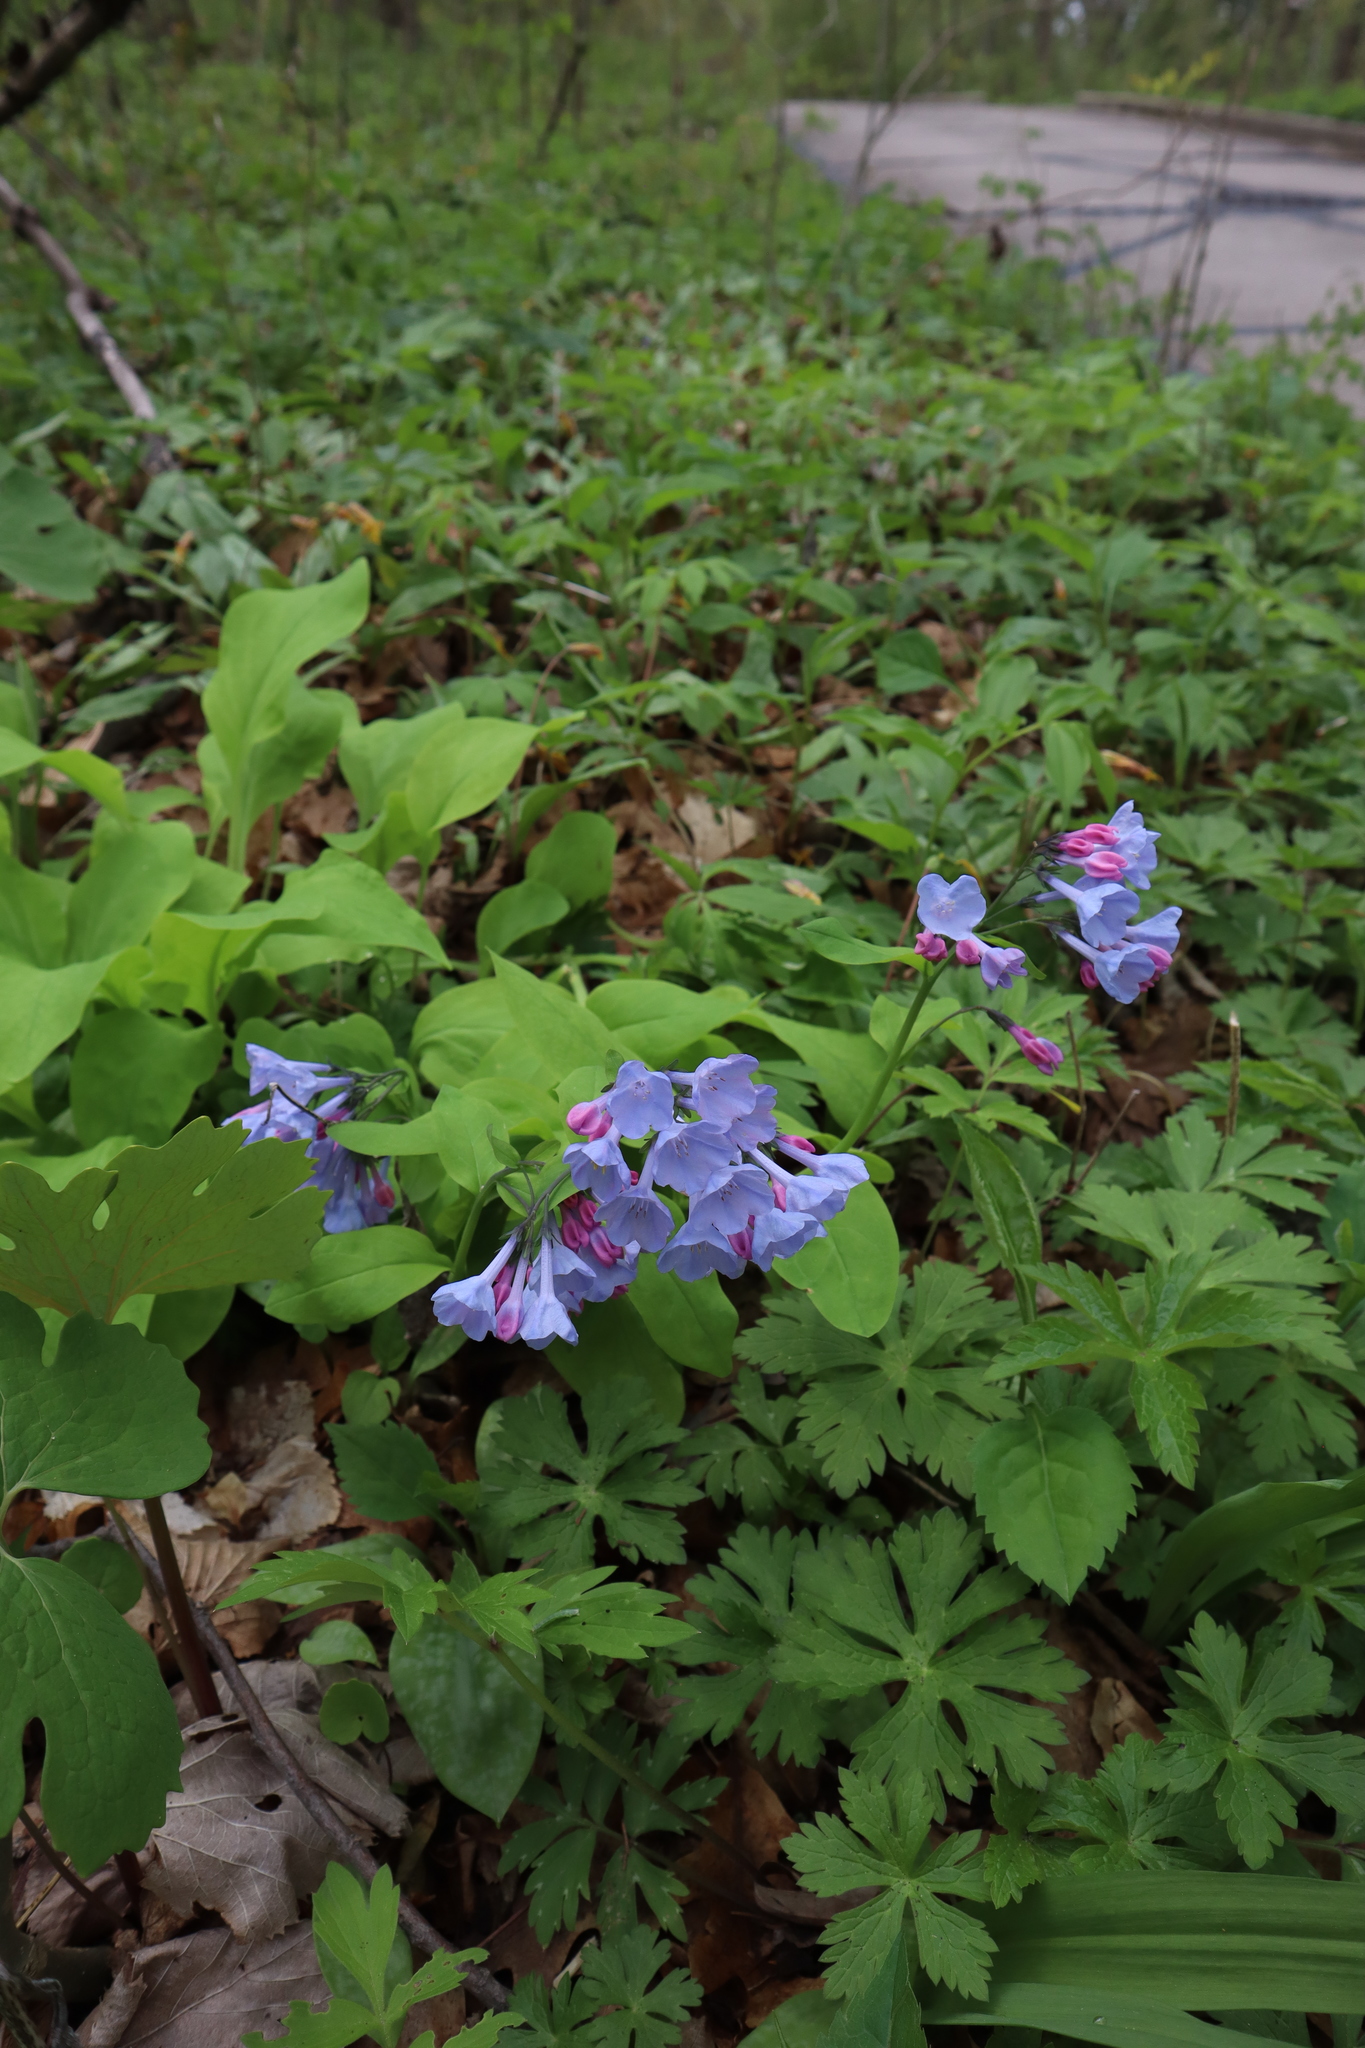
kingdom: Plantae
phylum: Tracheophyta
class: Magnoliopsida
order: Boraginales
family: Boraginaceae
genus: Mertensia
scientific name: Mertensia virginica
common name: Virginia bluebells
